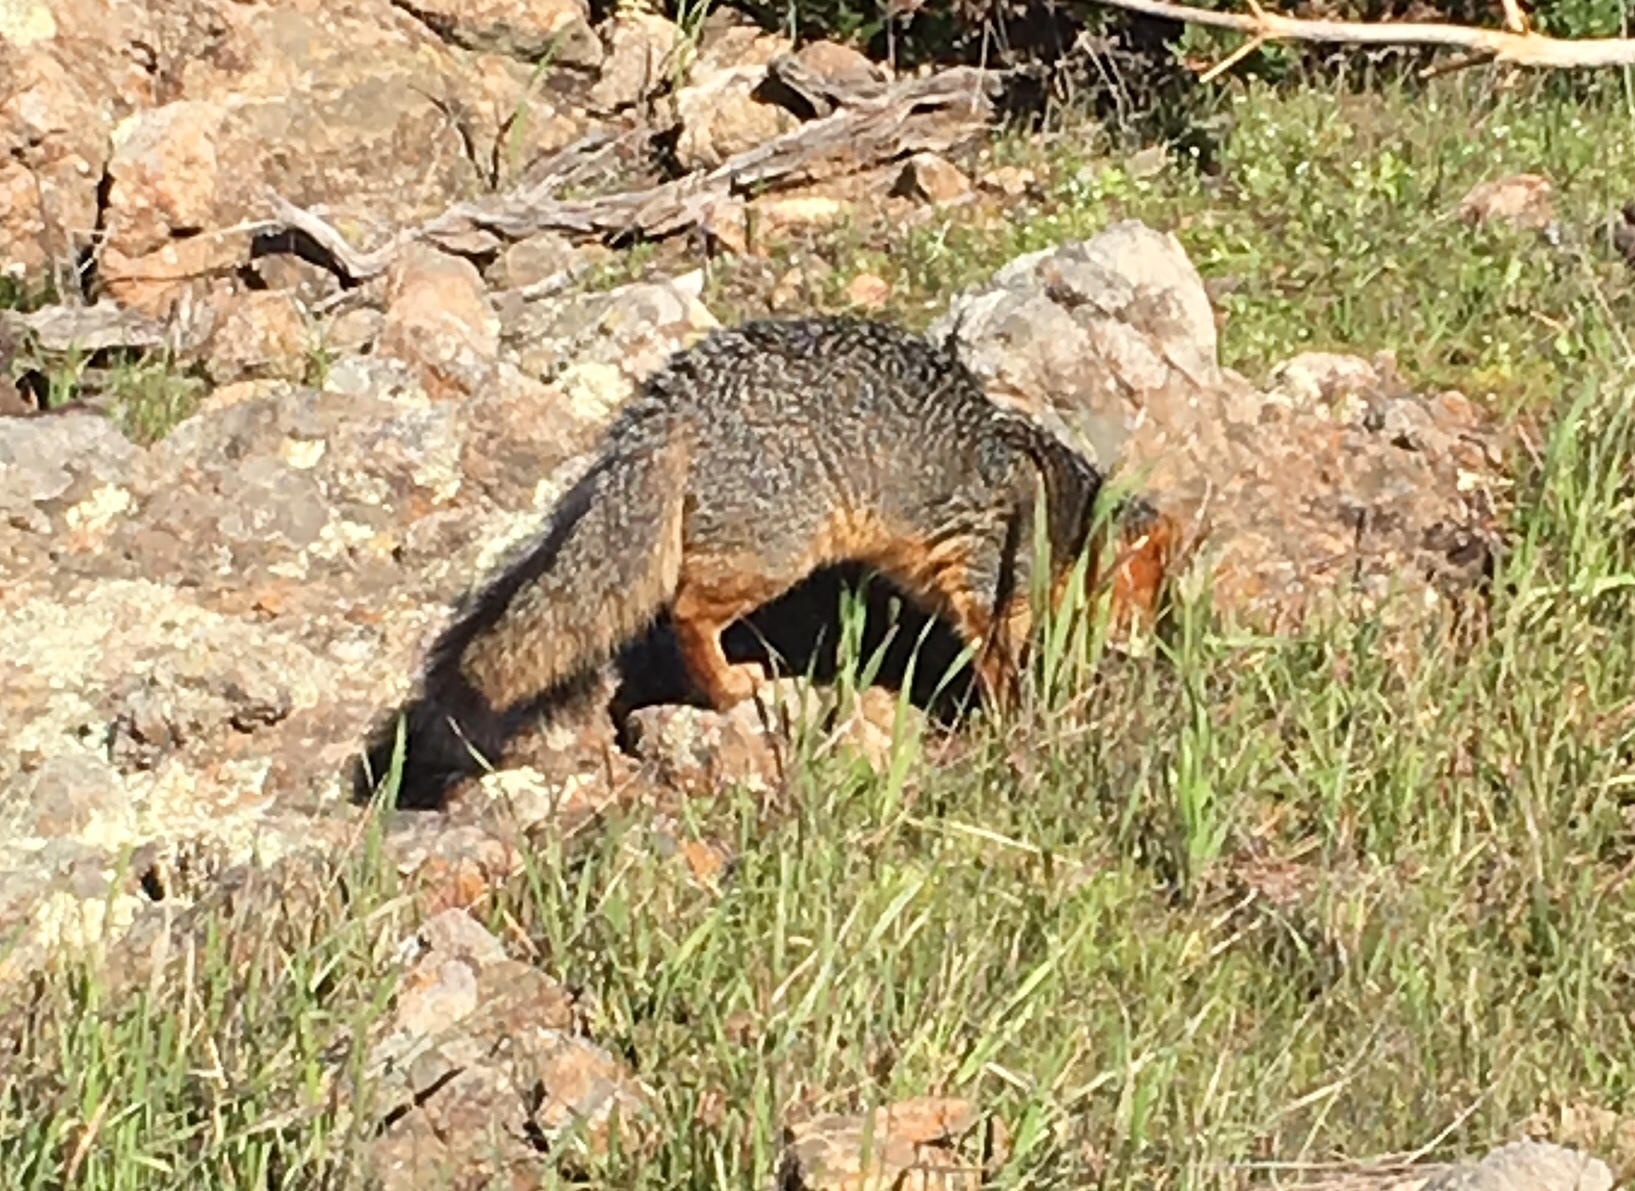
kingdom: Animalia
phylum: Chordata
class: Mammalia
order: Carnivora
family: Canidae
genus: Urocyon
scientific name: Urocyon littoralis
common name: Island gray fox
